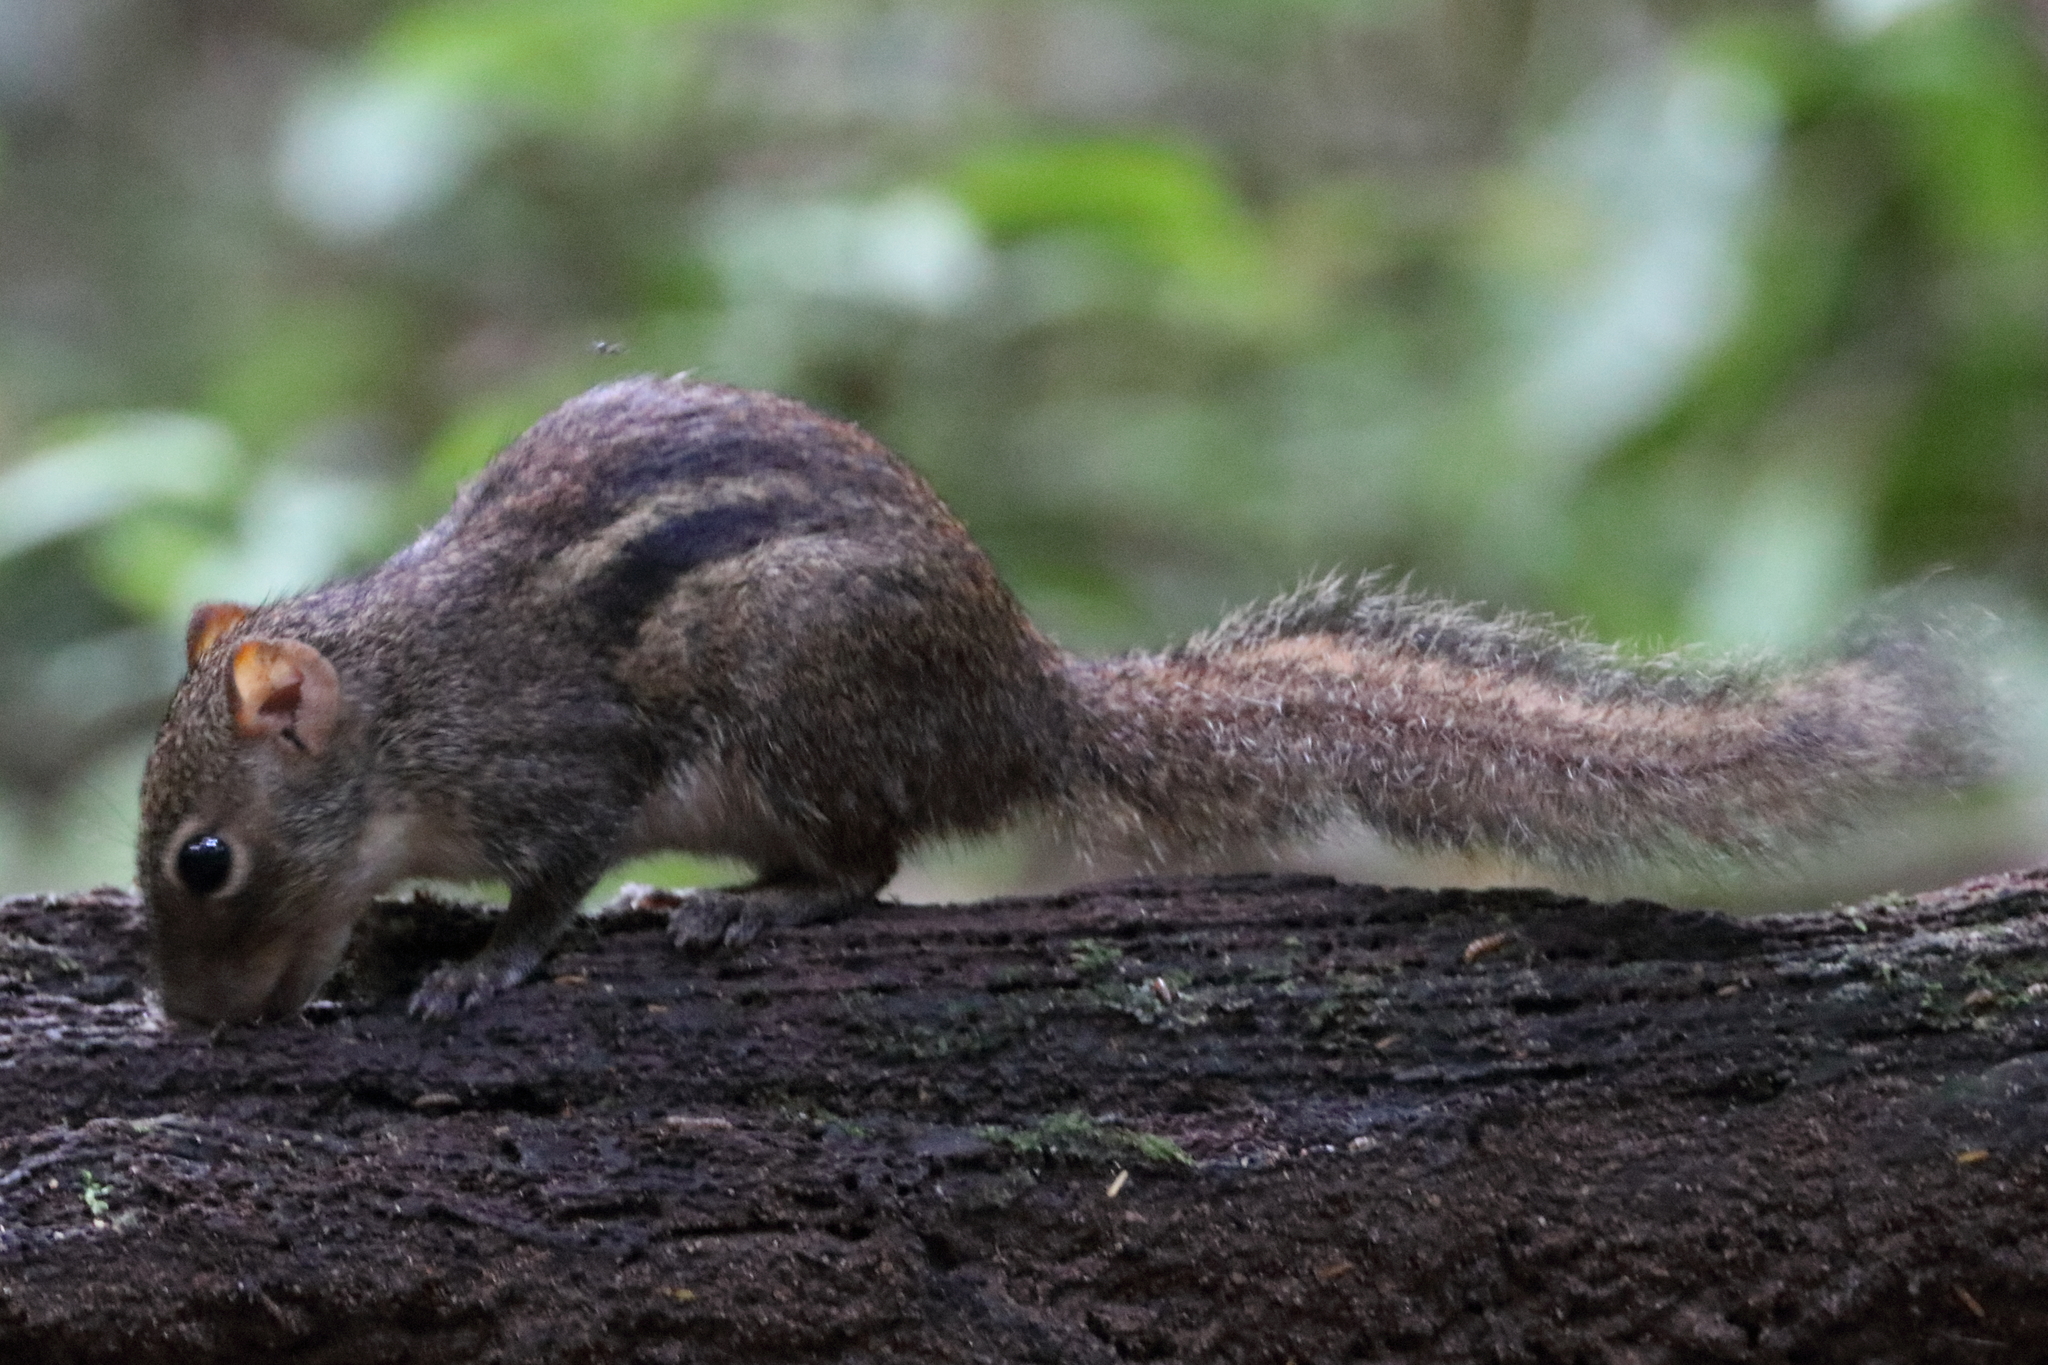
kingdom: Animalia
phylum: Chordata
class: Mammalia
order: Rodentia
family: Sciuridae
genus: Menetes
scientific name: Menetes berdmorei
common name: Indochinese ground squirrel
